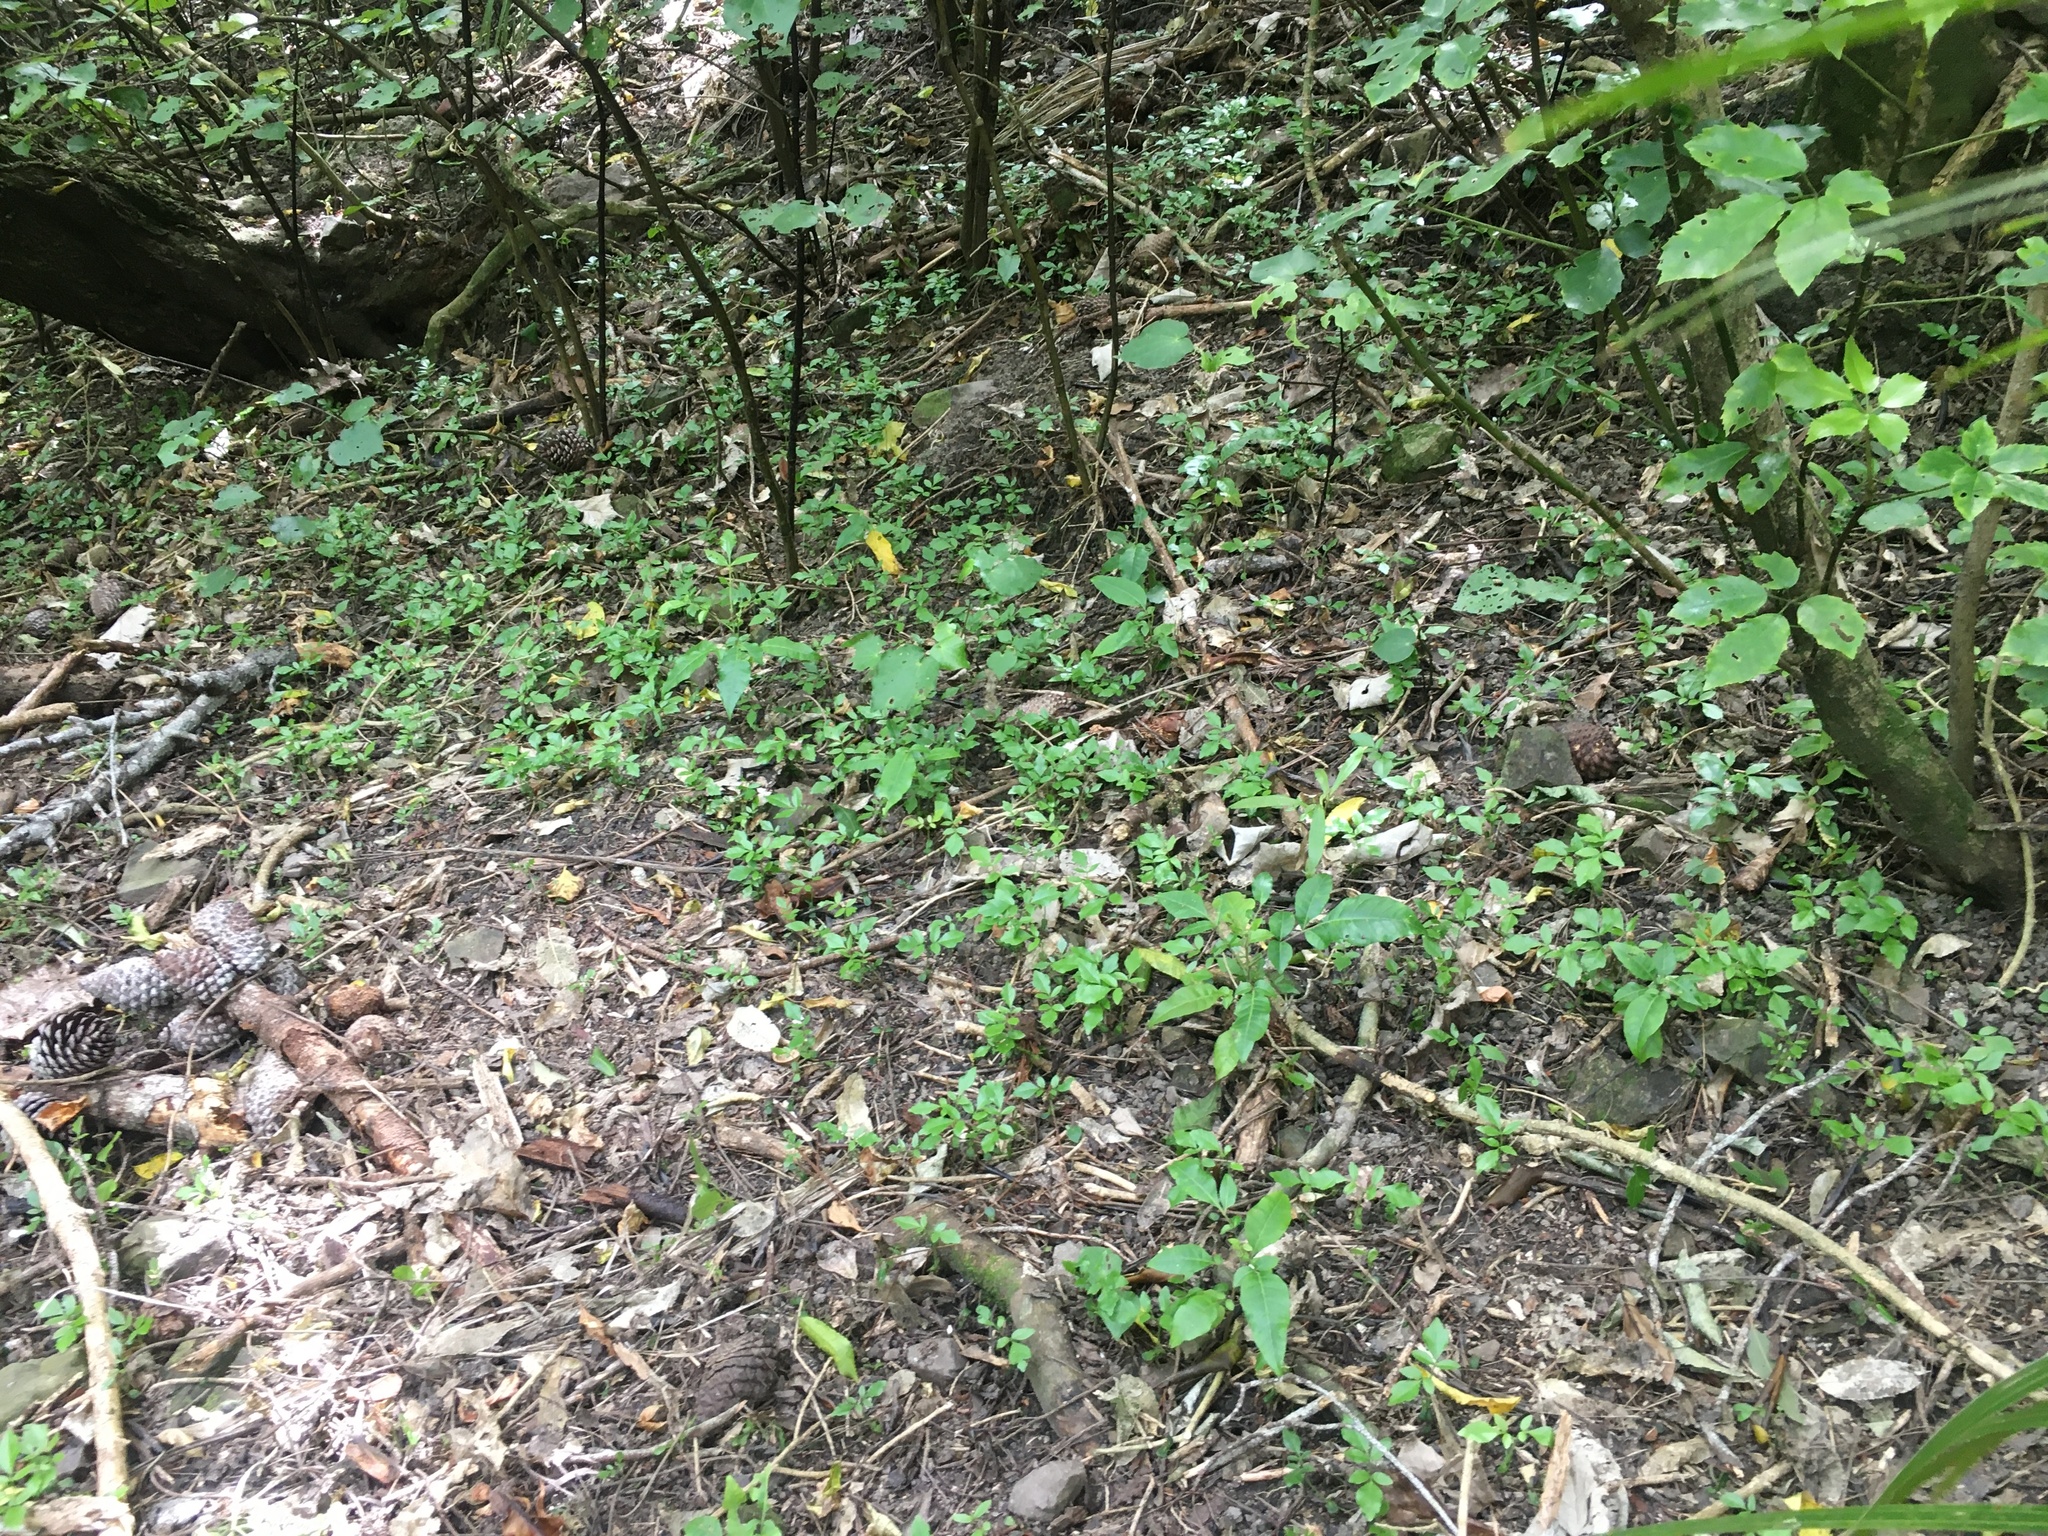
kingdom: Plantae
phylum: Tracheophyta
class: Magnoliopsida
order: Sapindales
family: Meliaceae
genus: Didymocheton
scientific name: Didymocheton spectabilis
